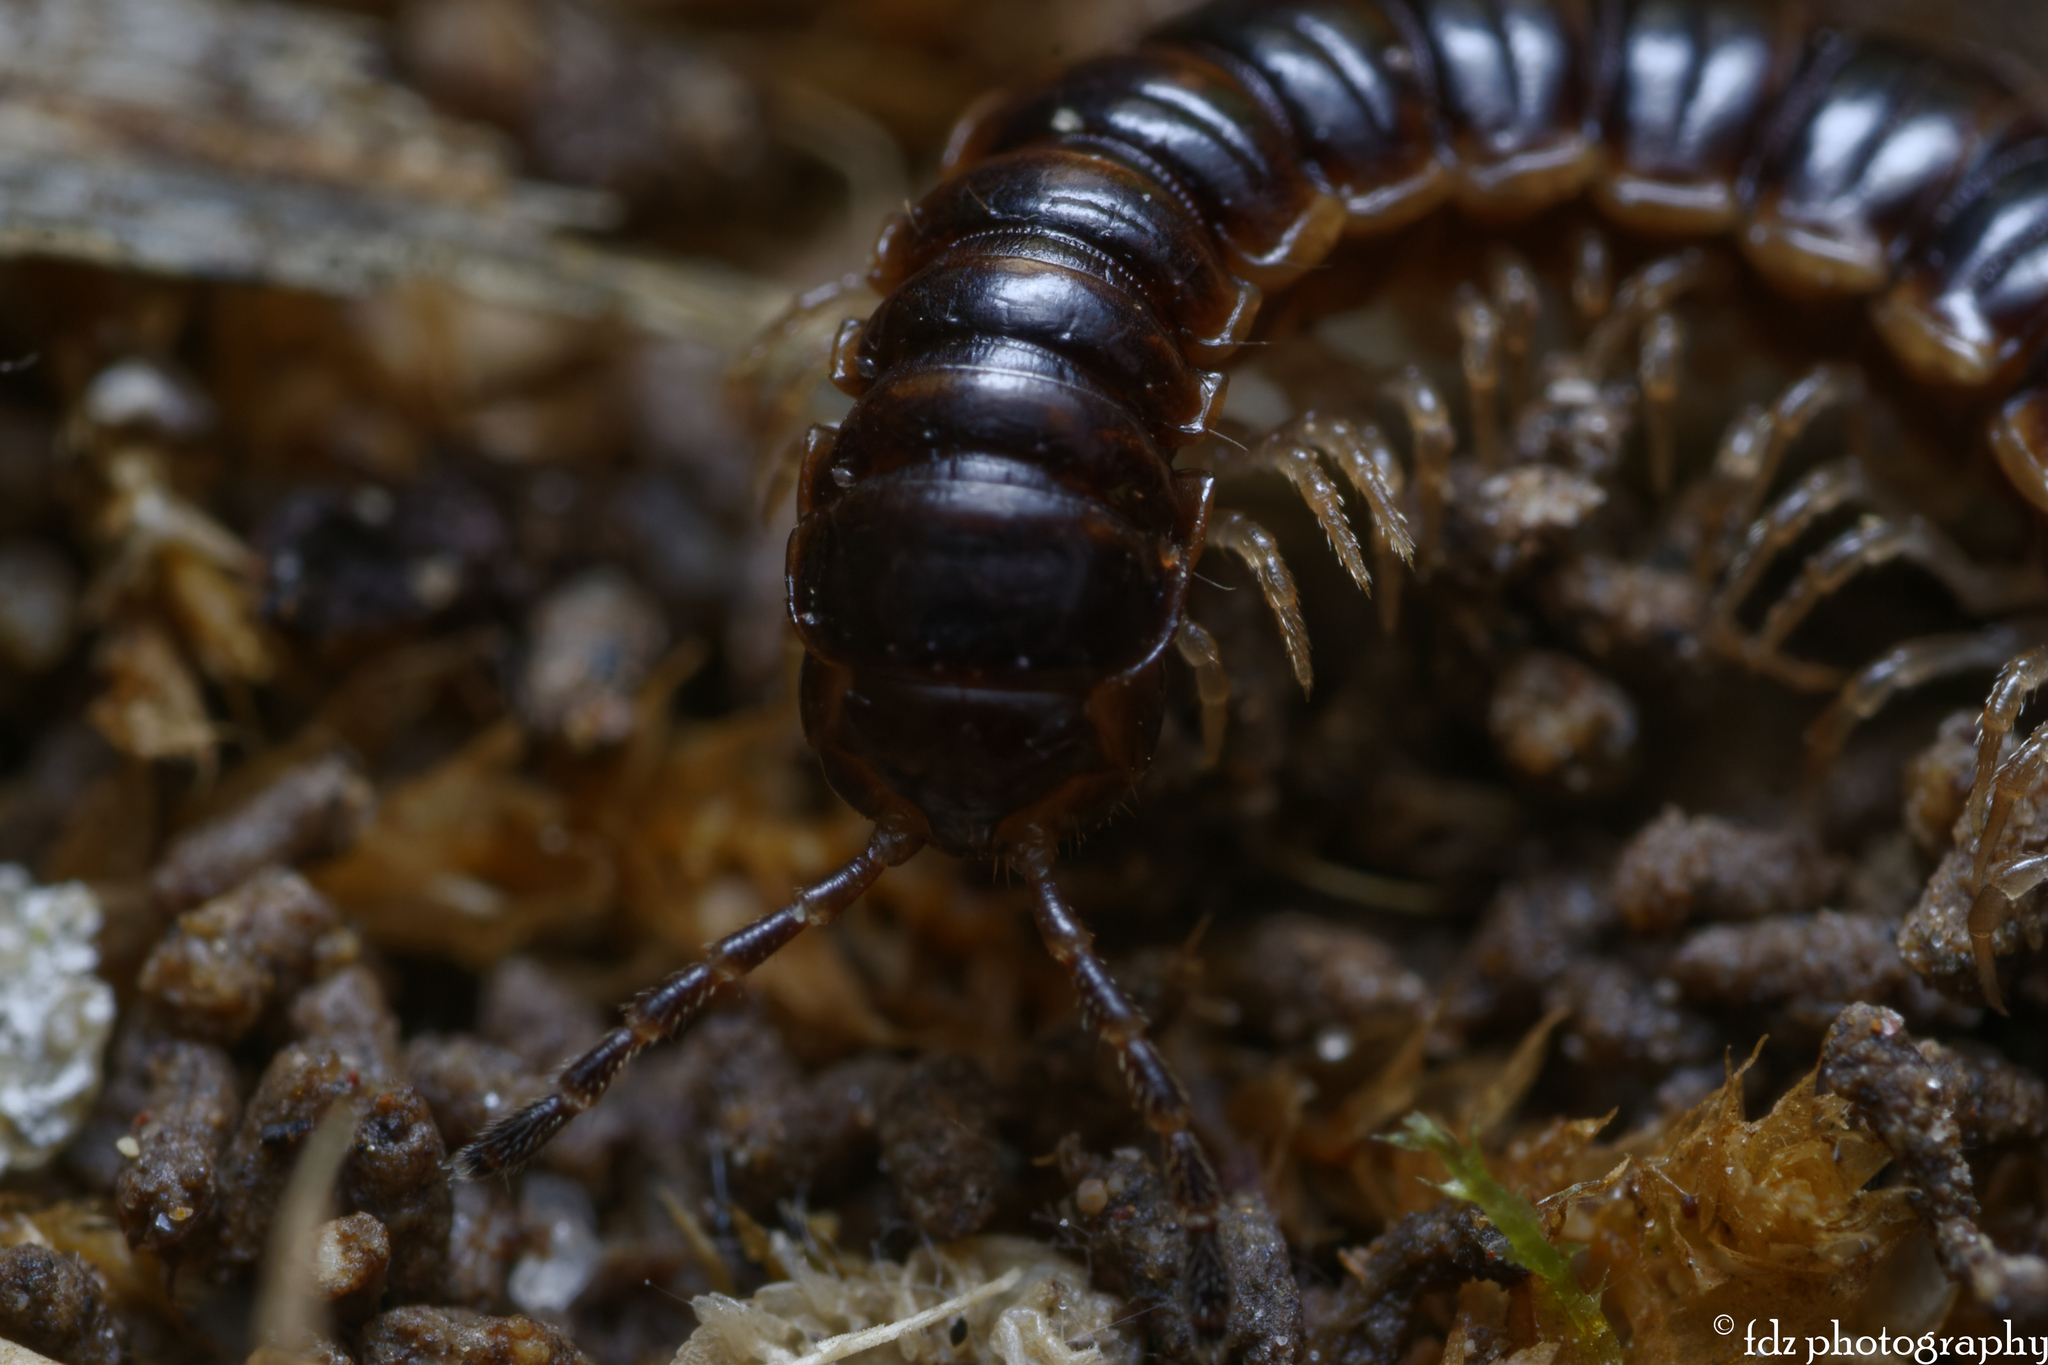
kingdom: Animalia
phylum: Arthropoda
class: Diplopoda
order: Polydesmida
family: Paradoxosomatidae
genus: Oxidus
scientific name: Oxidus gracilis
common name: Greenhouse millipede
